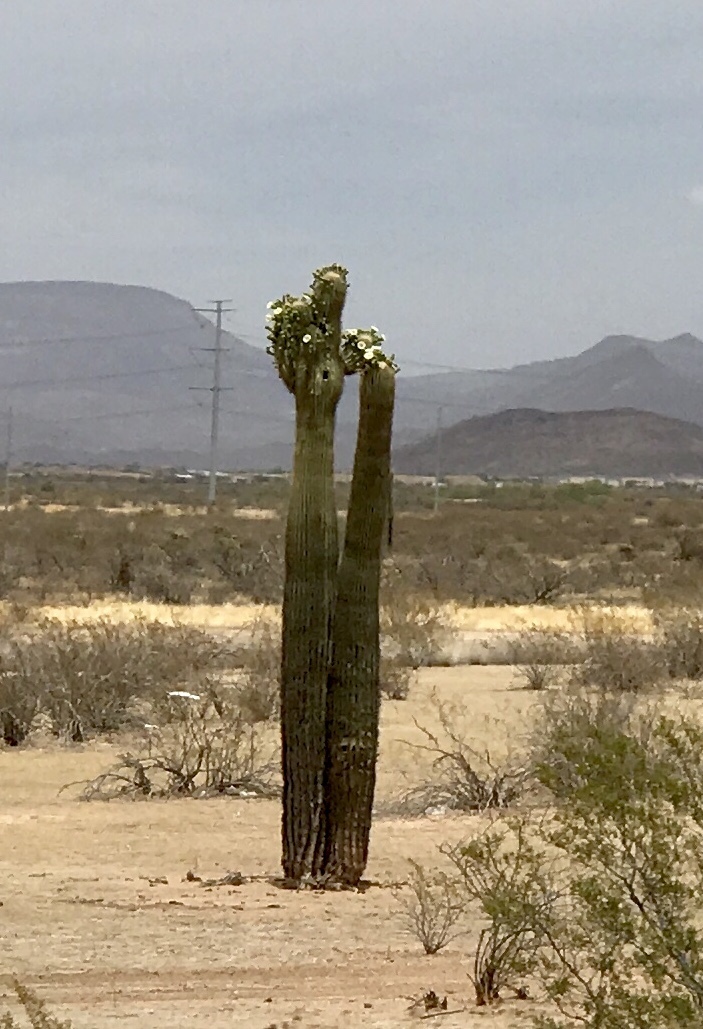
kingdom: Plantae
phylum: Tracheophyta
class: Magnoliopsida
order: Caryophyllales
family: Cactaceae
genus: Carnegiea
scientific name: Carnegiea gigantea
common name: Saguaro
